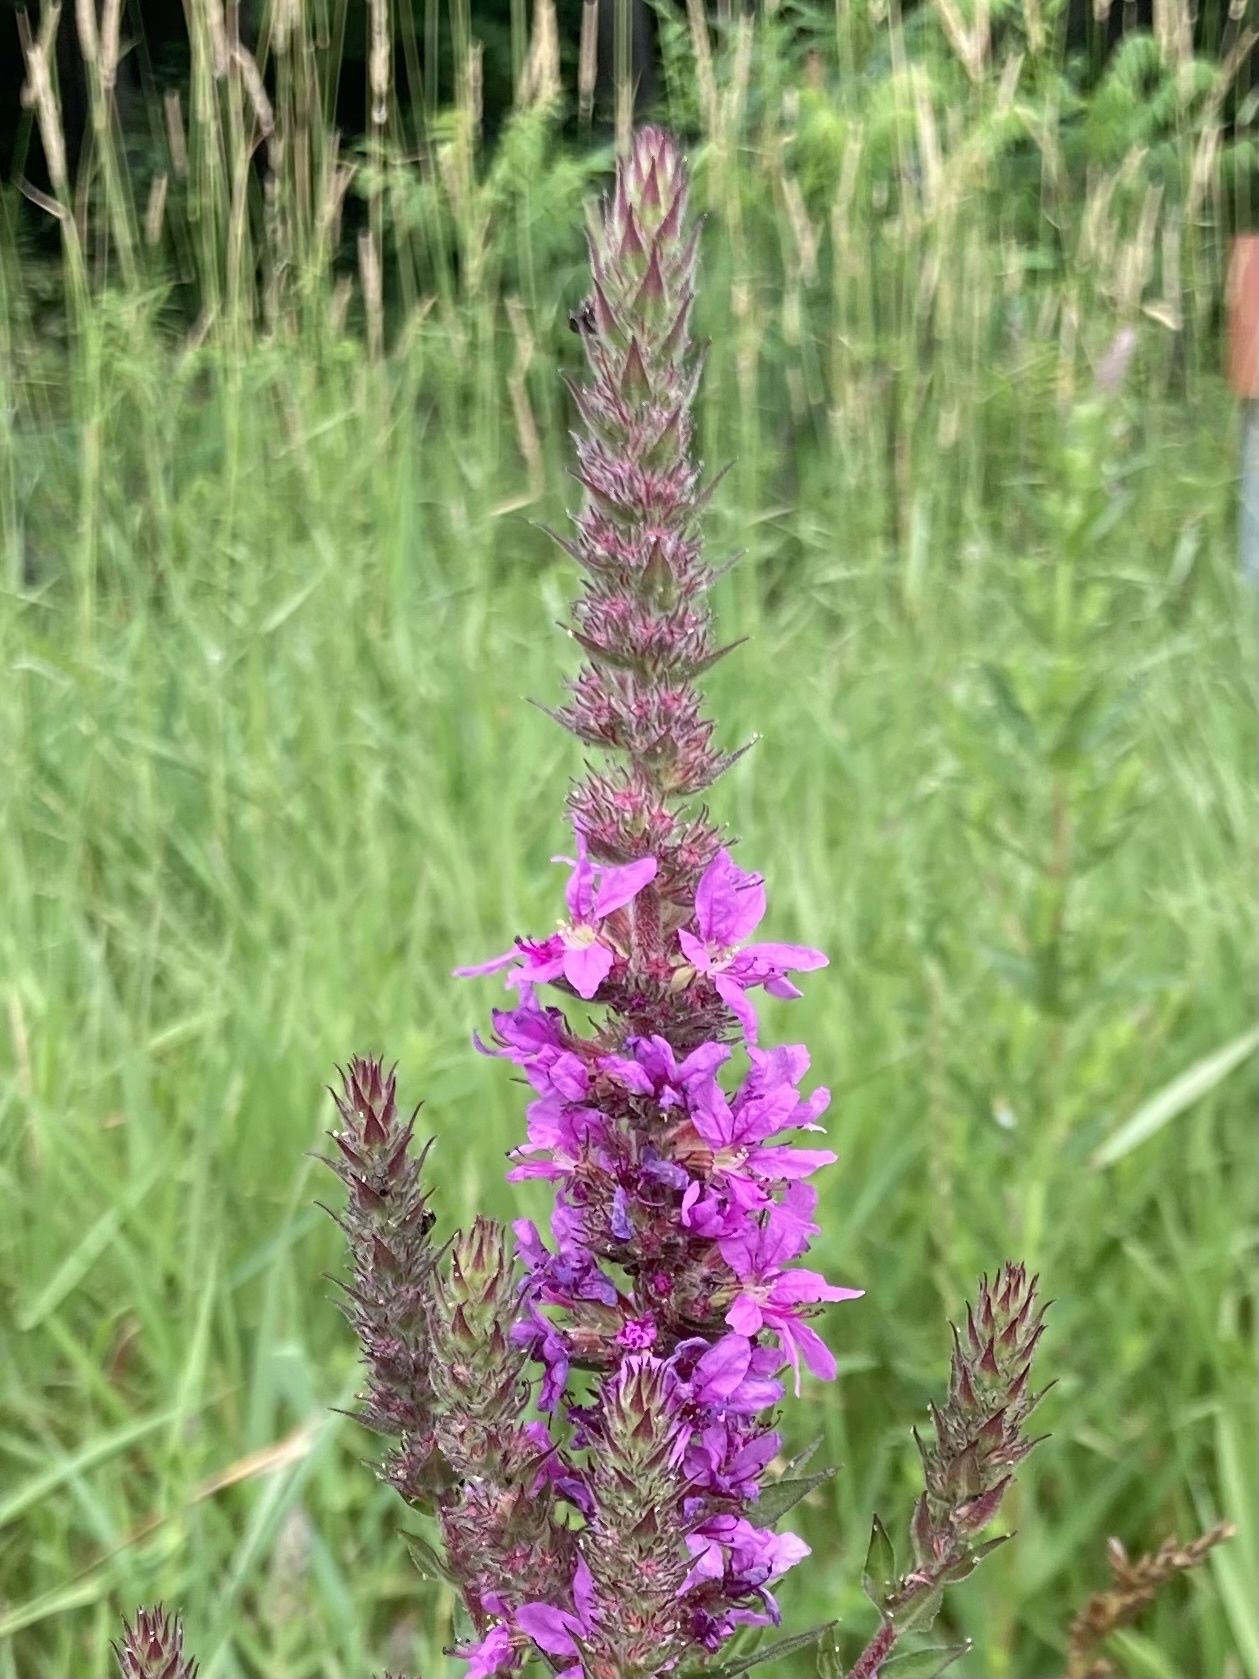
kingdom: Plantae
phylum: Tracheophyta
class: Magnoliopsida
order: Myrtales
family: Lythraceae
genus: Lythrum
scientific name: Lythrum salicaria
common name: Purple loosestrife
